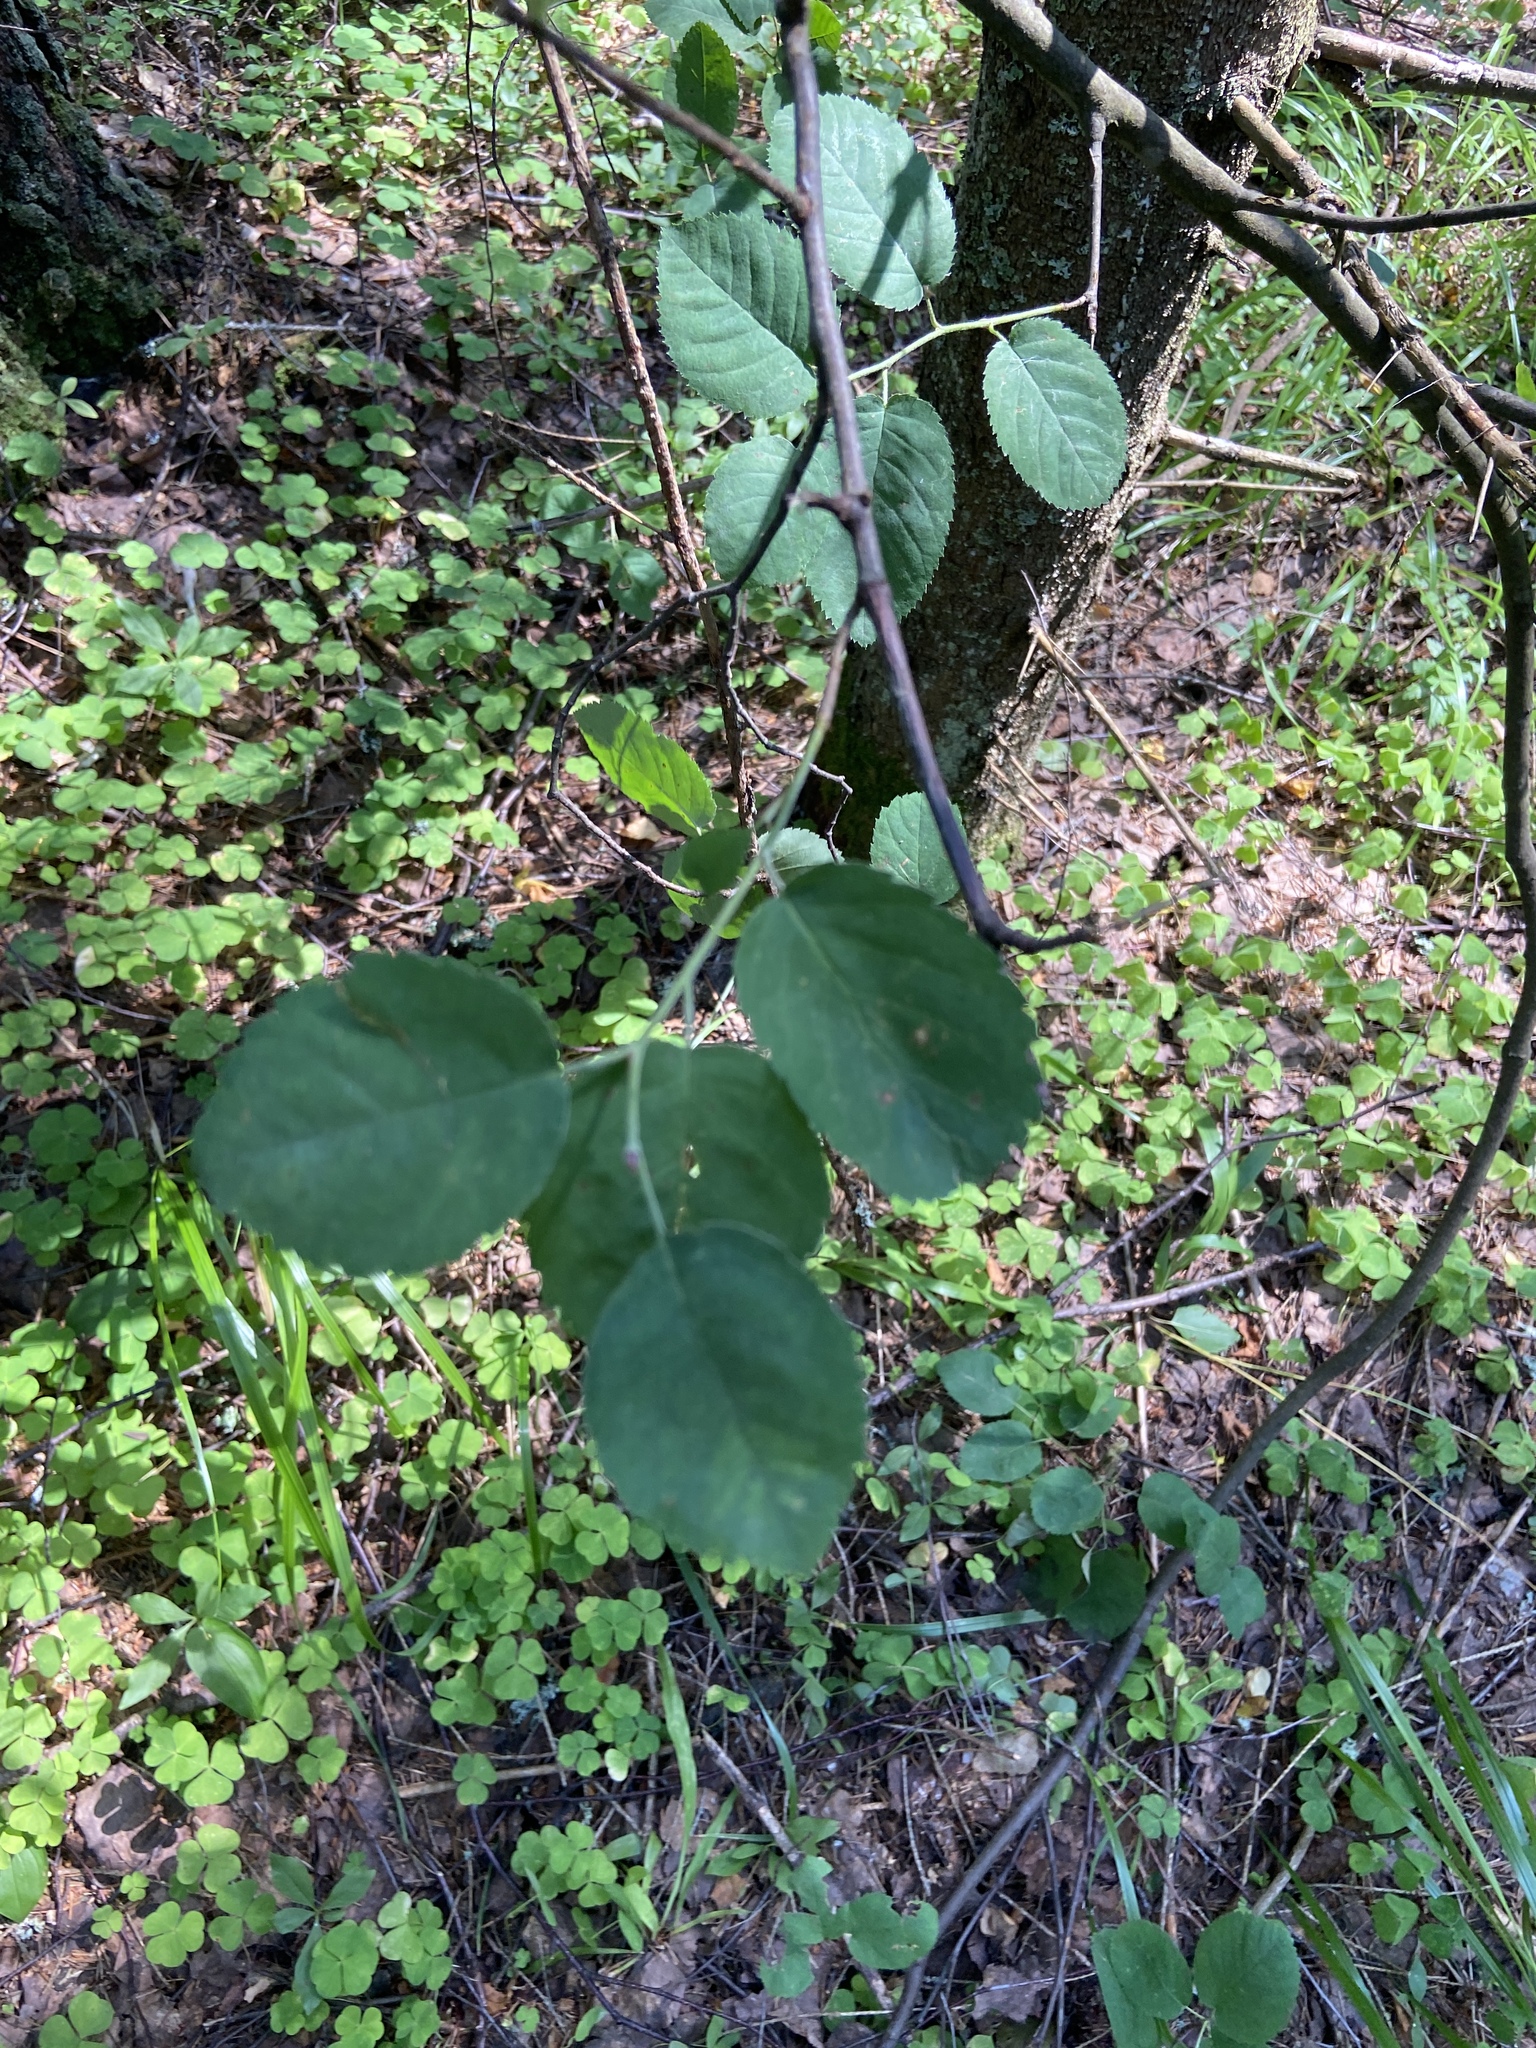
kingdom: Plantae
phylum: Tracheophyta
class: Magnoliopsida
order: Rosales
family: Rosaceae
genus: Amelanchier
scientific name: Amelanchier
